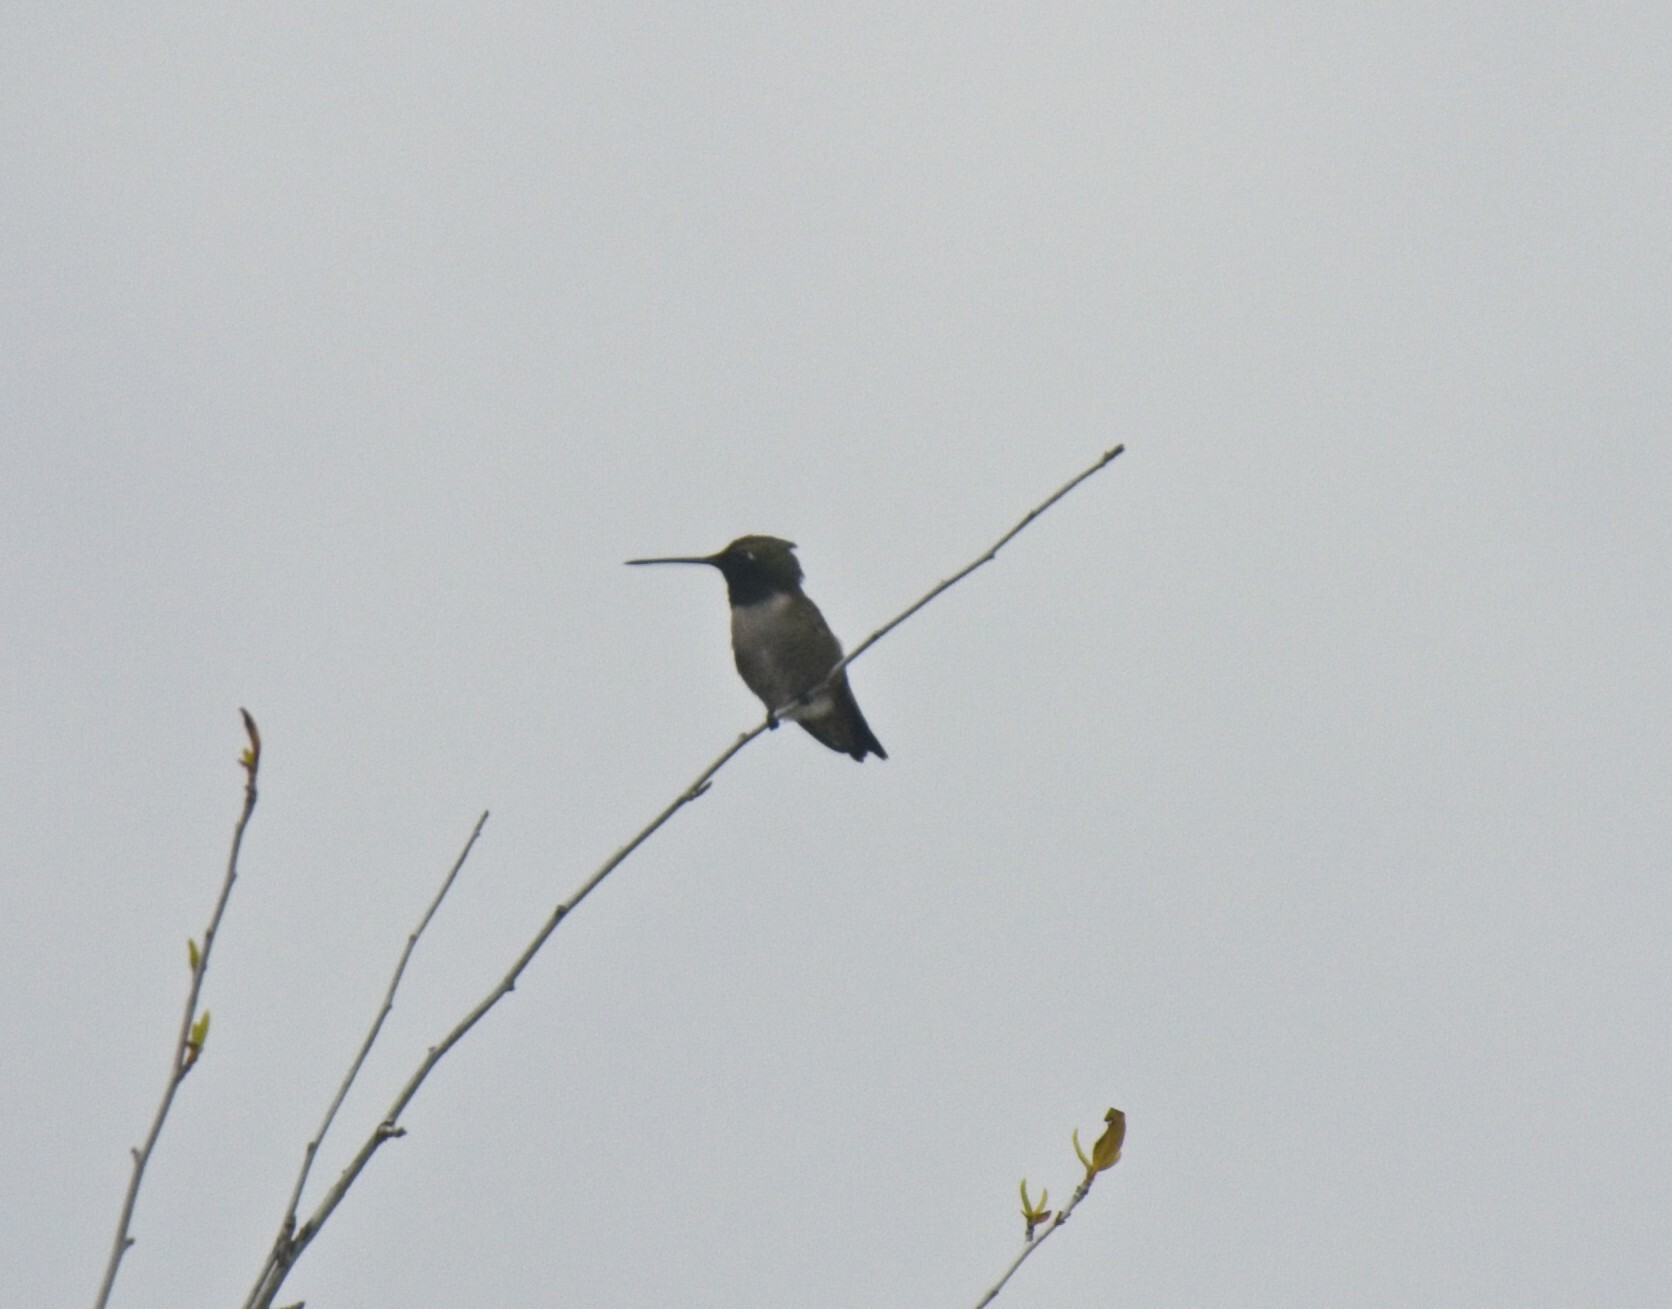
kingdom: Animalia
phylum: Chordata
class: Aves
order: Apodiformes
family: Trochilidae
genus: Archilochus
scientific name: Archilochus alexandri
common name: Black-chinned hummingbird
